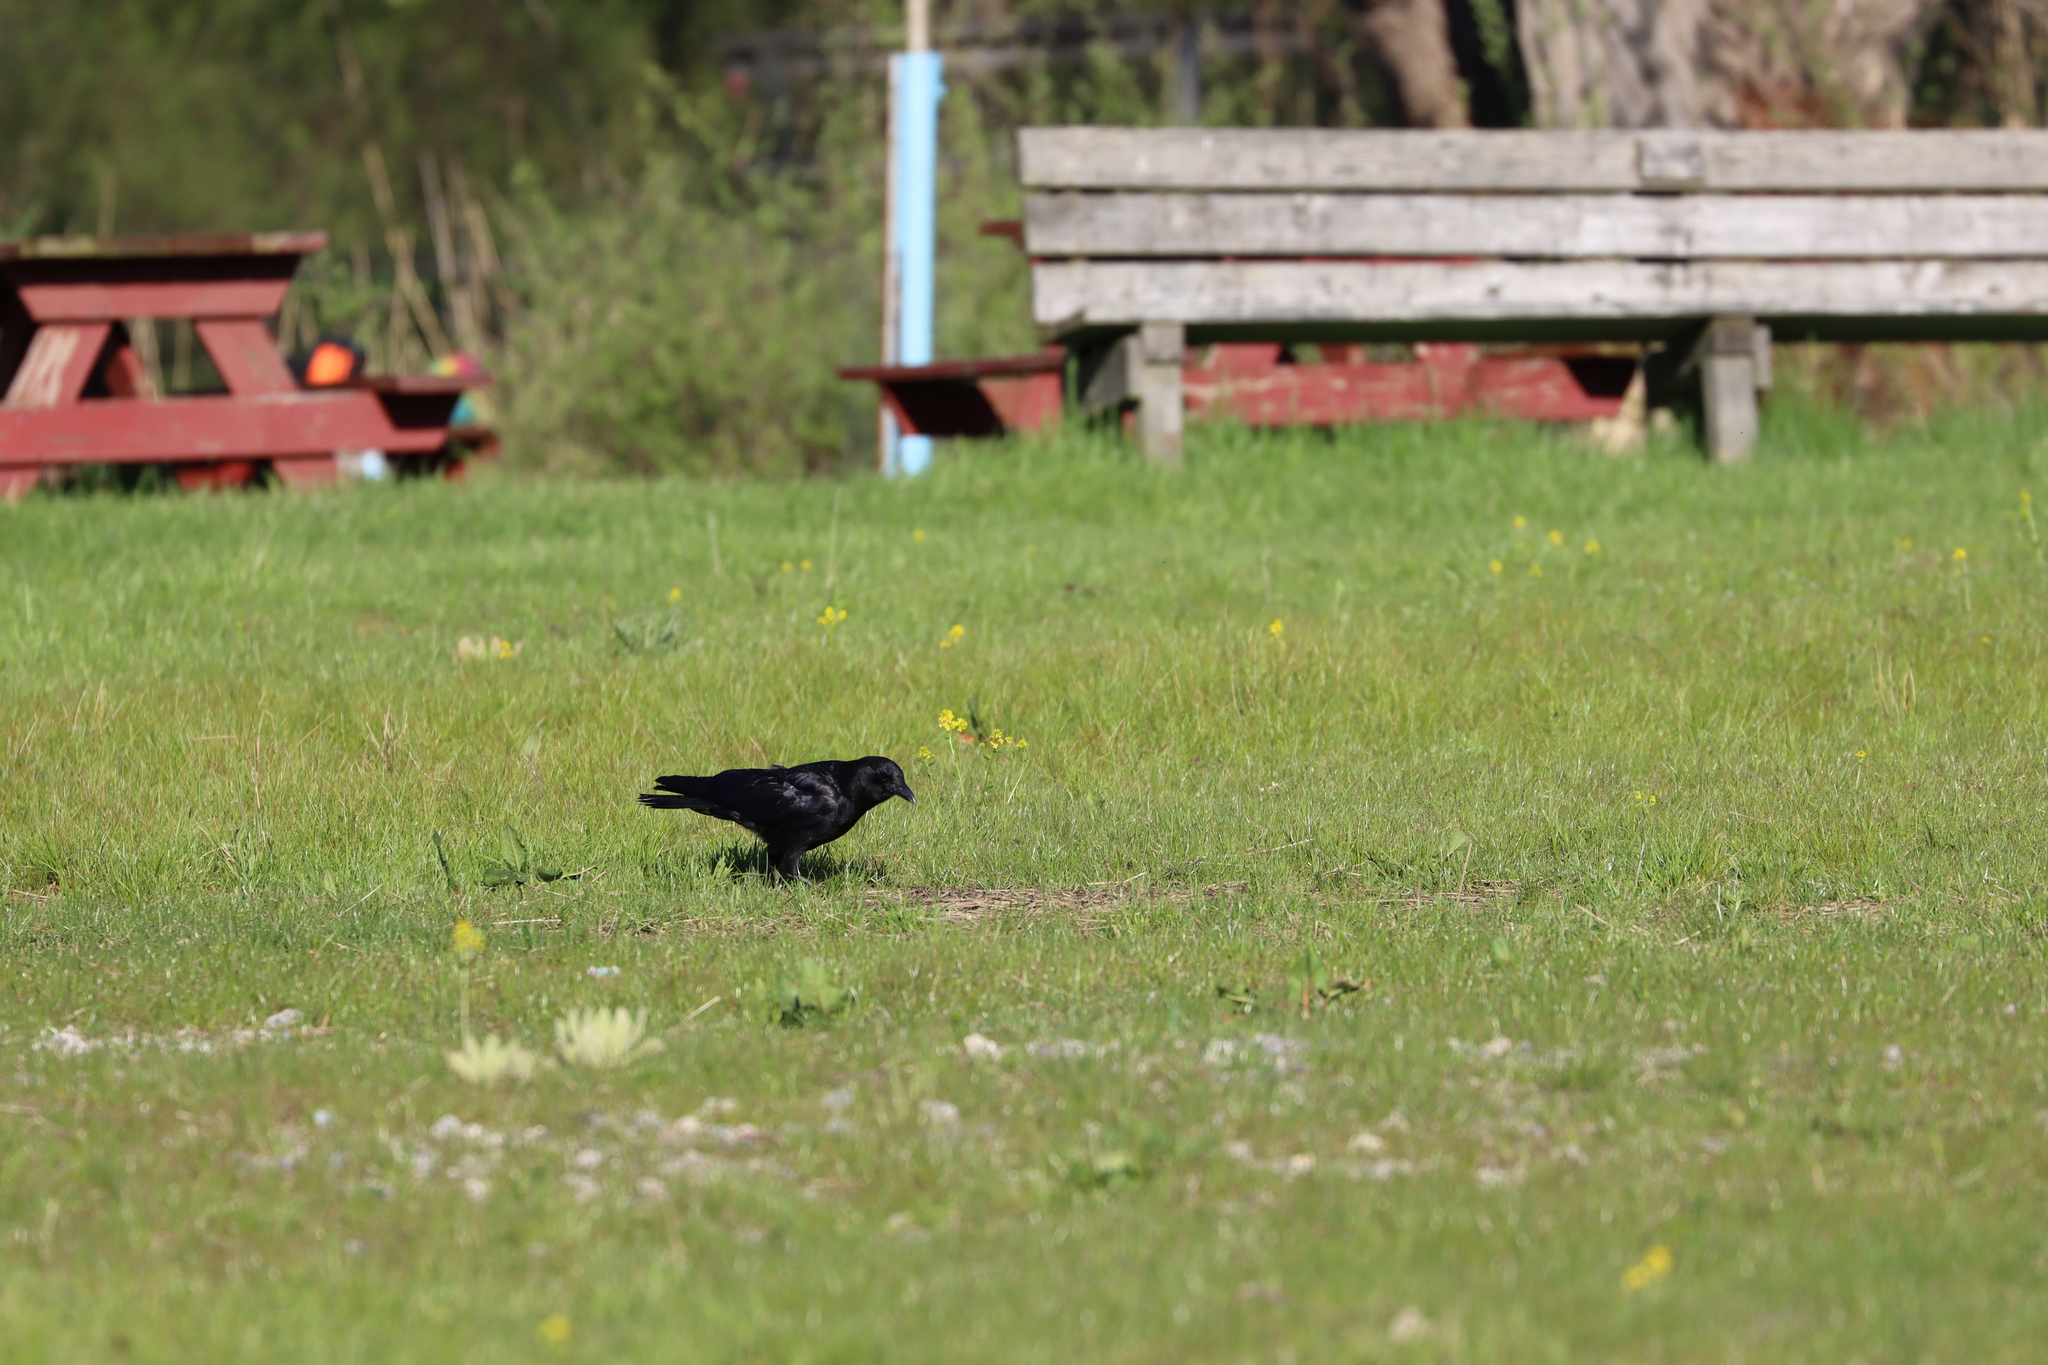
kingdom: Animalia
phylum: Chordata
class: Aves
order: Passeriformes
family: Corvidae
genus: Corvus
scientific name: Corvus
